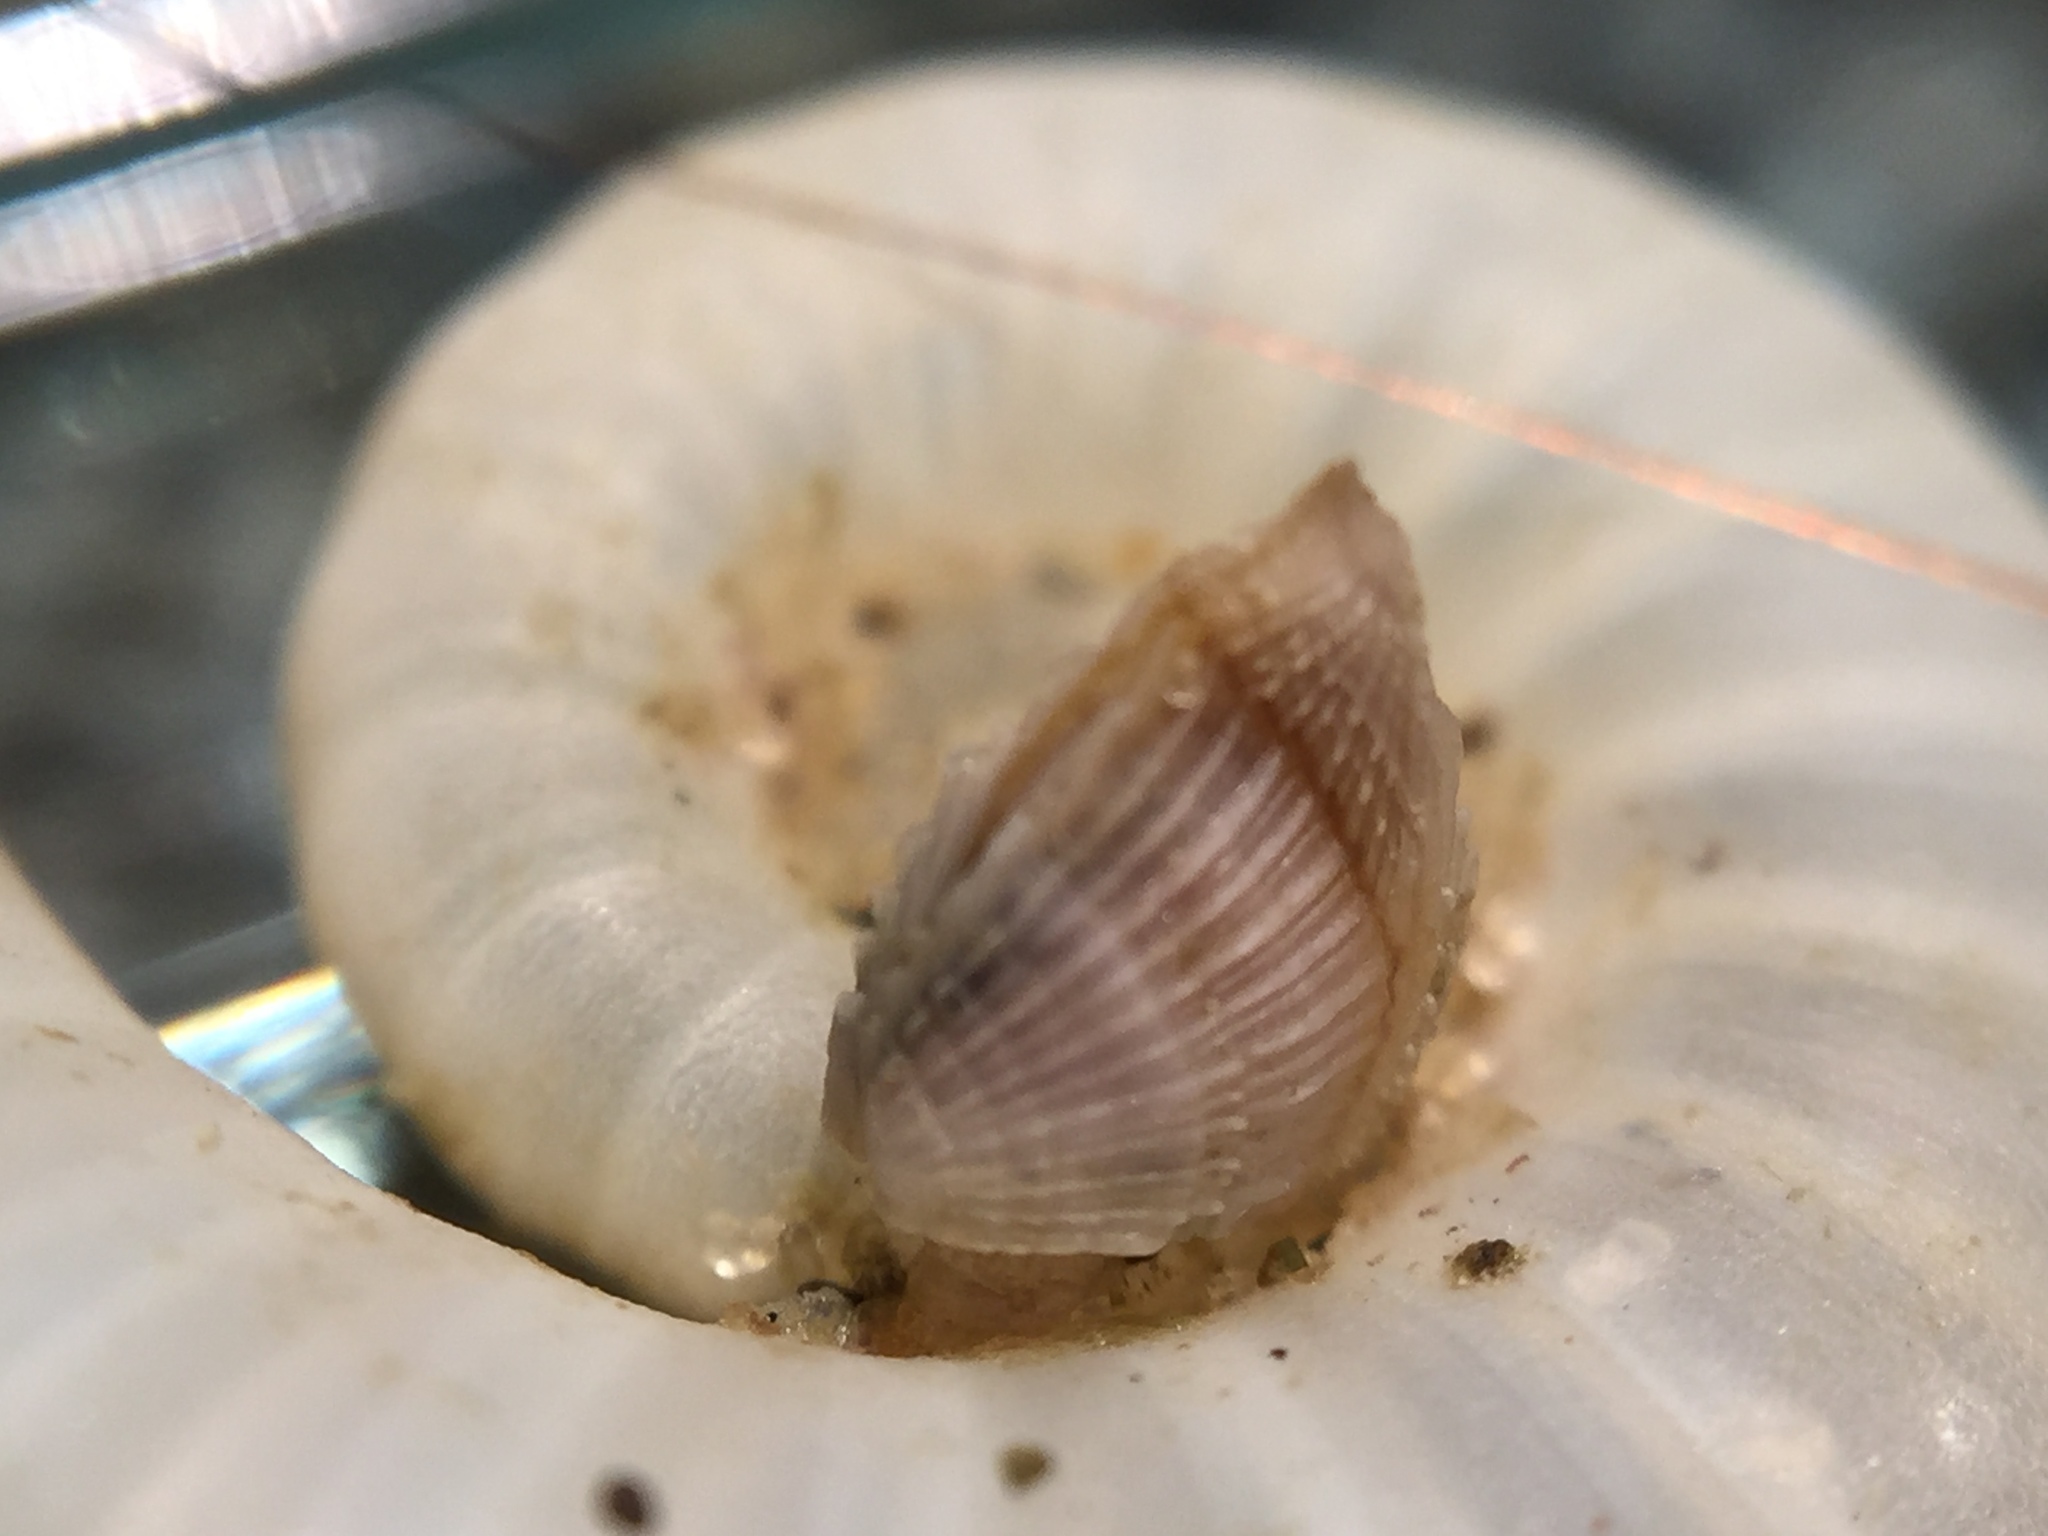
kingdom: Animalia
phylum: Arthropoda
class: Maxillopoda
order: Pedunculata
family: Lepadidae
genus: Lepas
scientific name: Lepas pectinata
